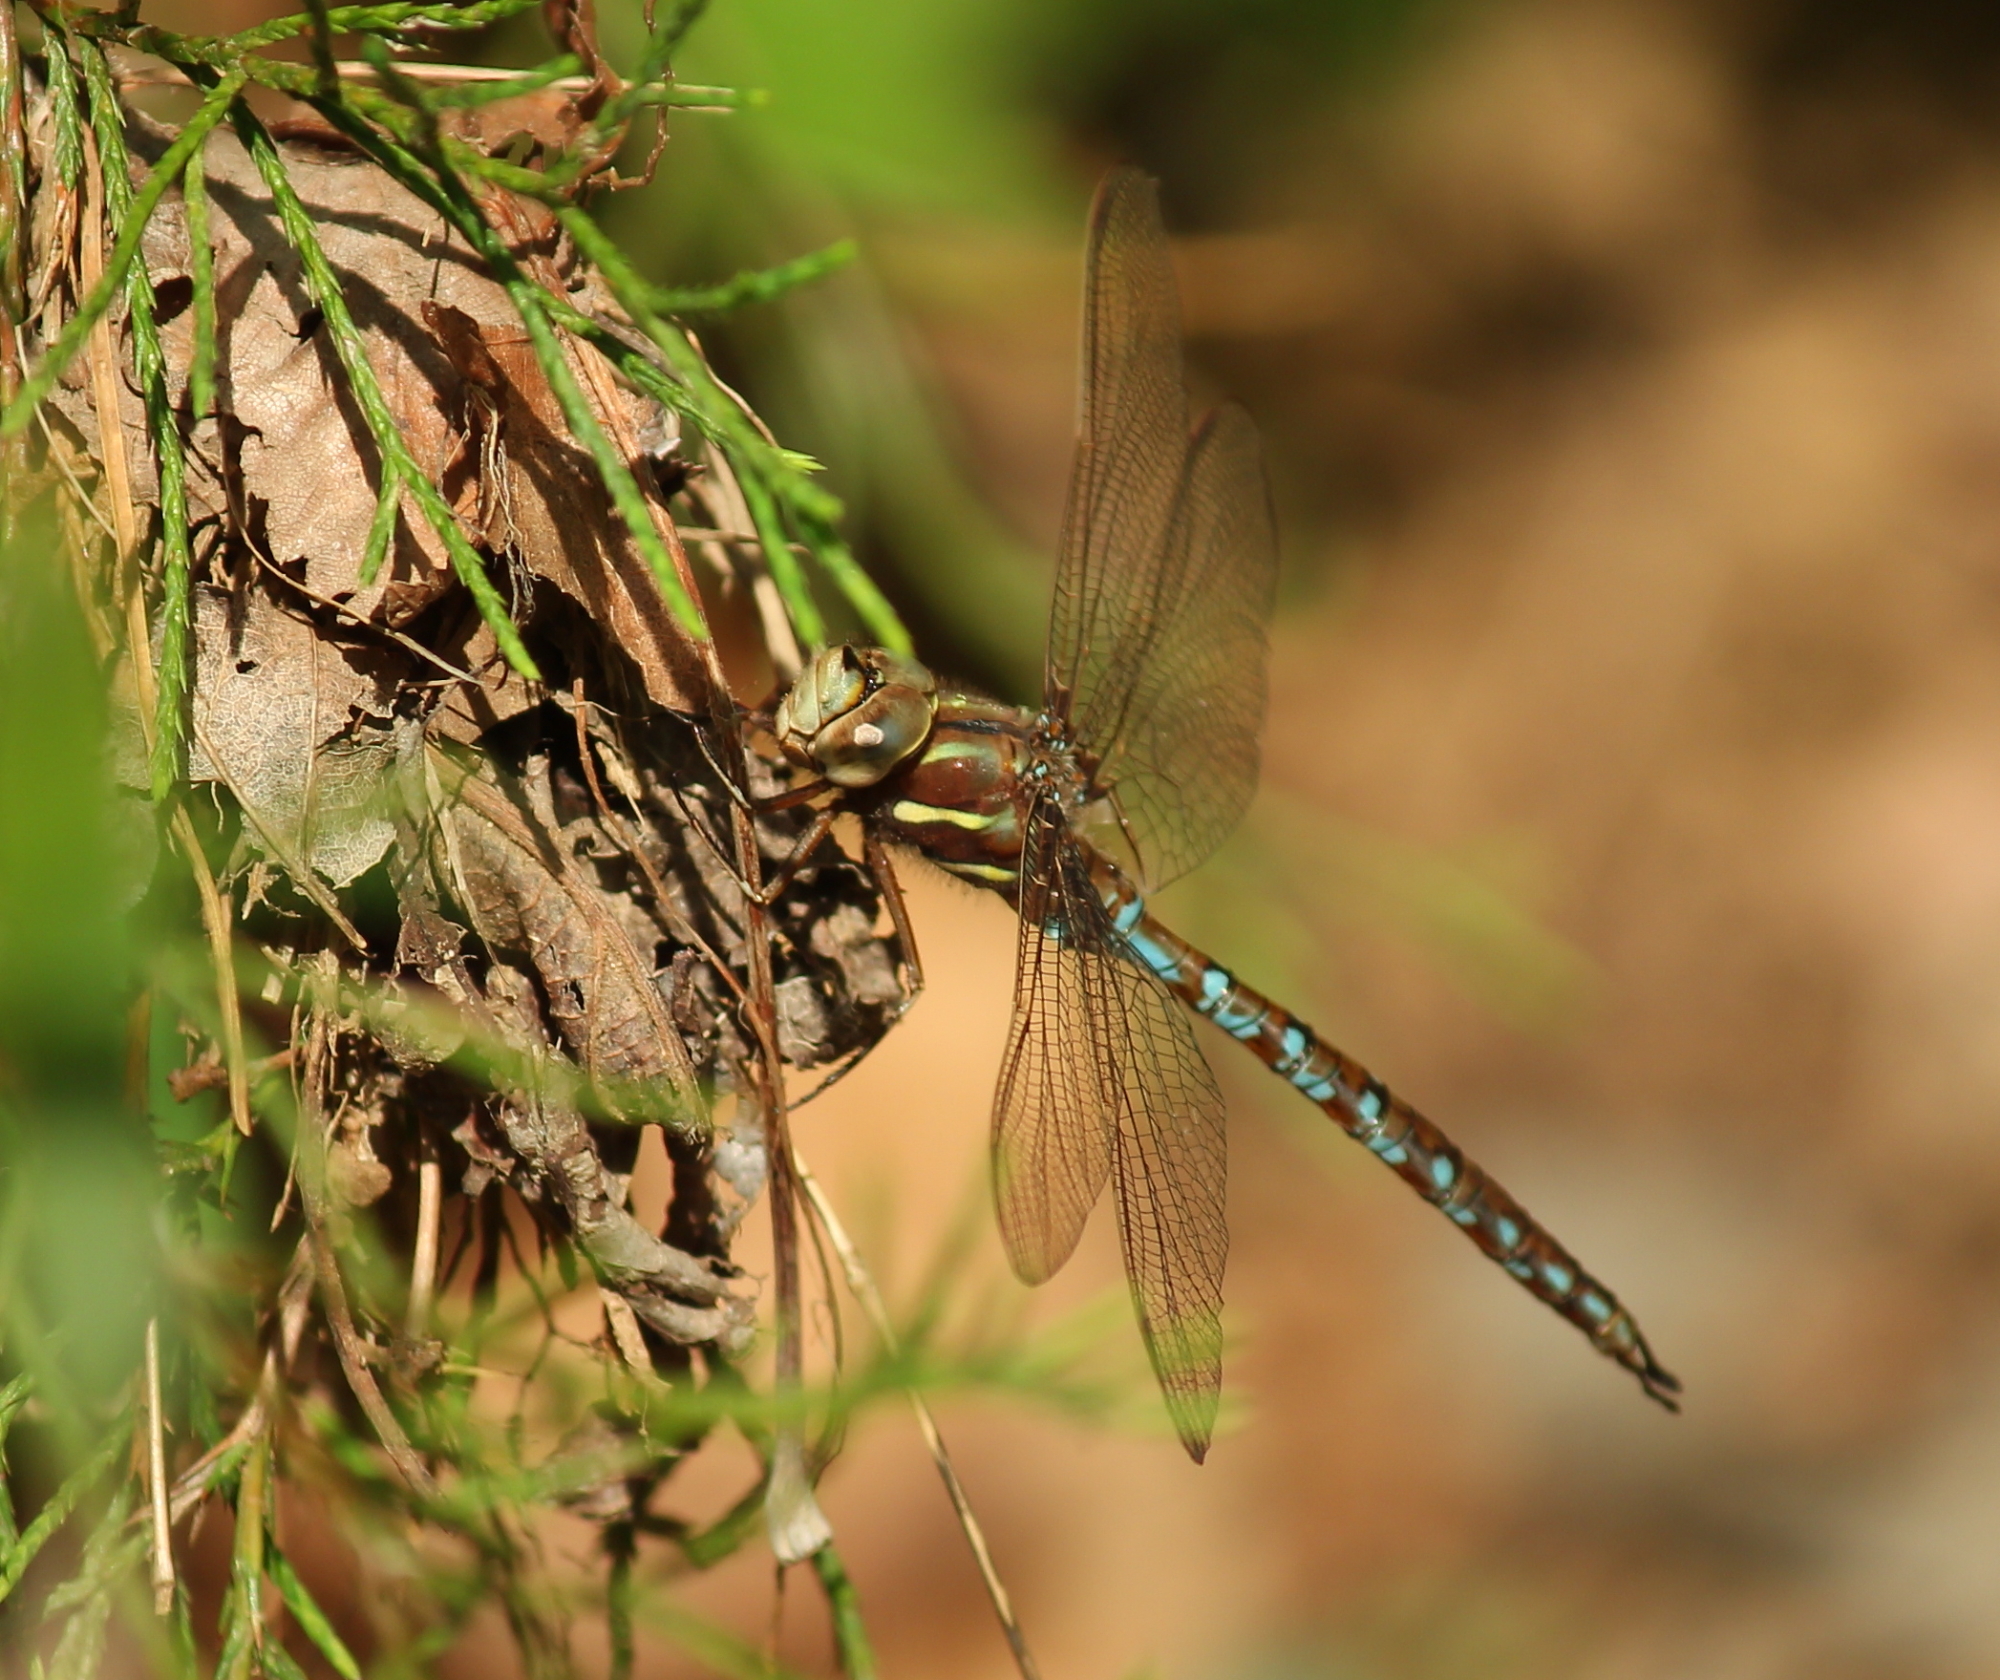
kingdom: Animalia
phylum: Arthropoda
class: Insecta
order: Odonata
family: Aeshnidae
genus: Basiaeschna
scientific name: Basiaeschna janata
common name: Springtime darner
